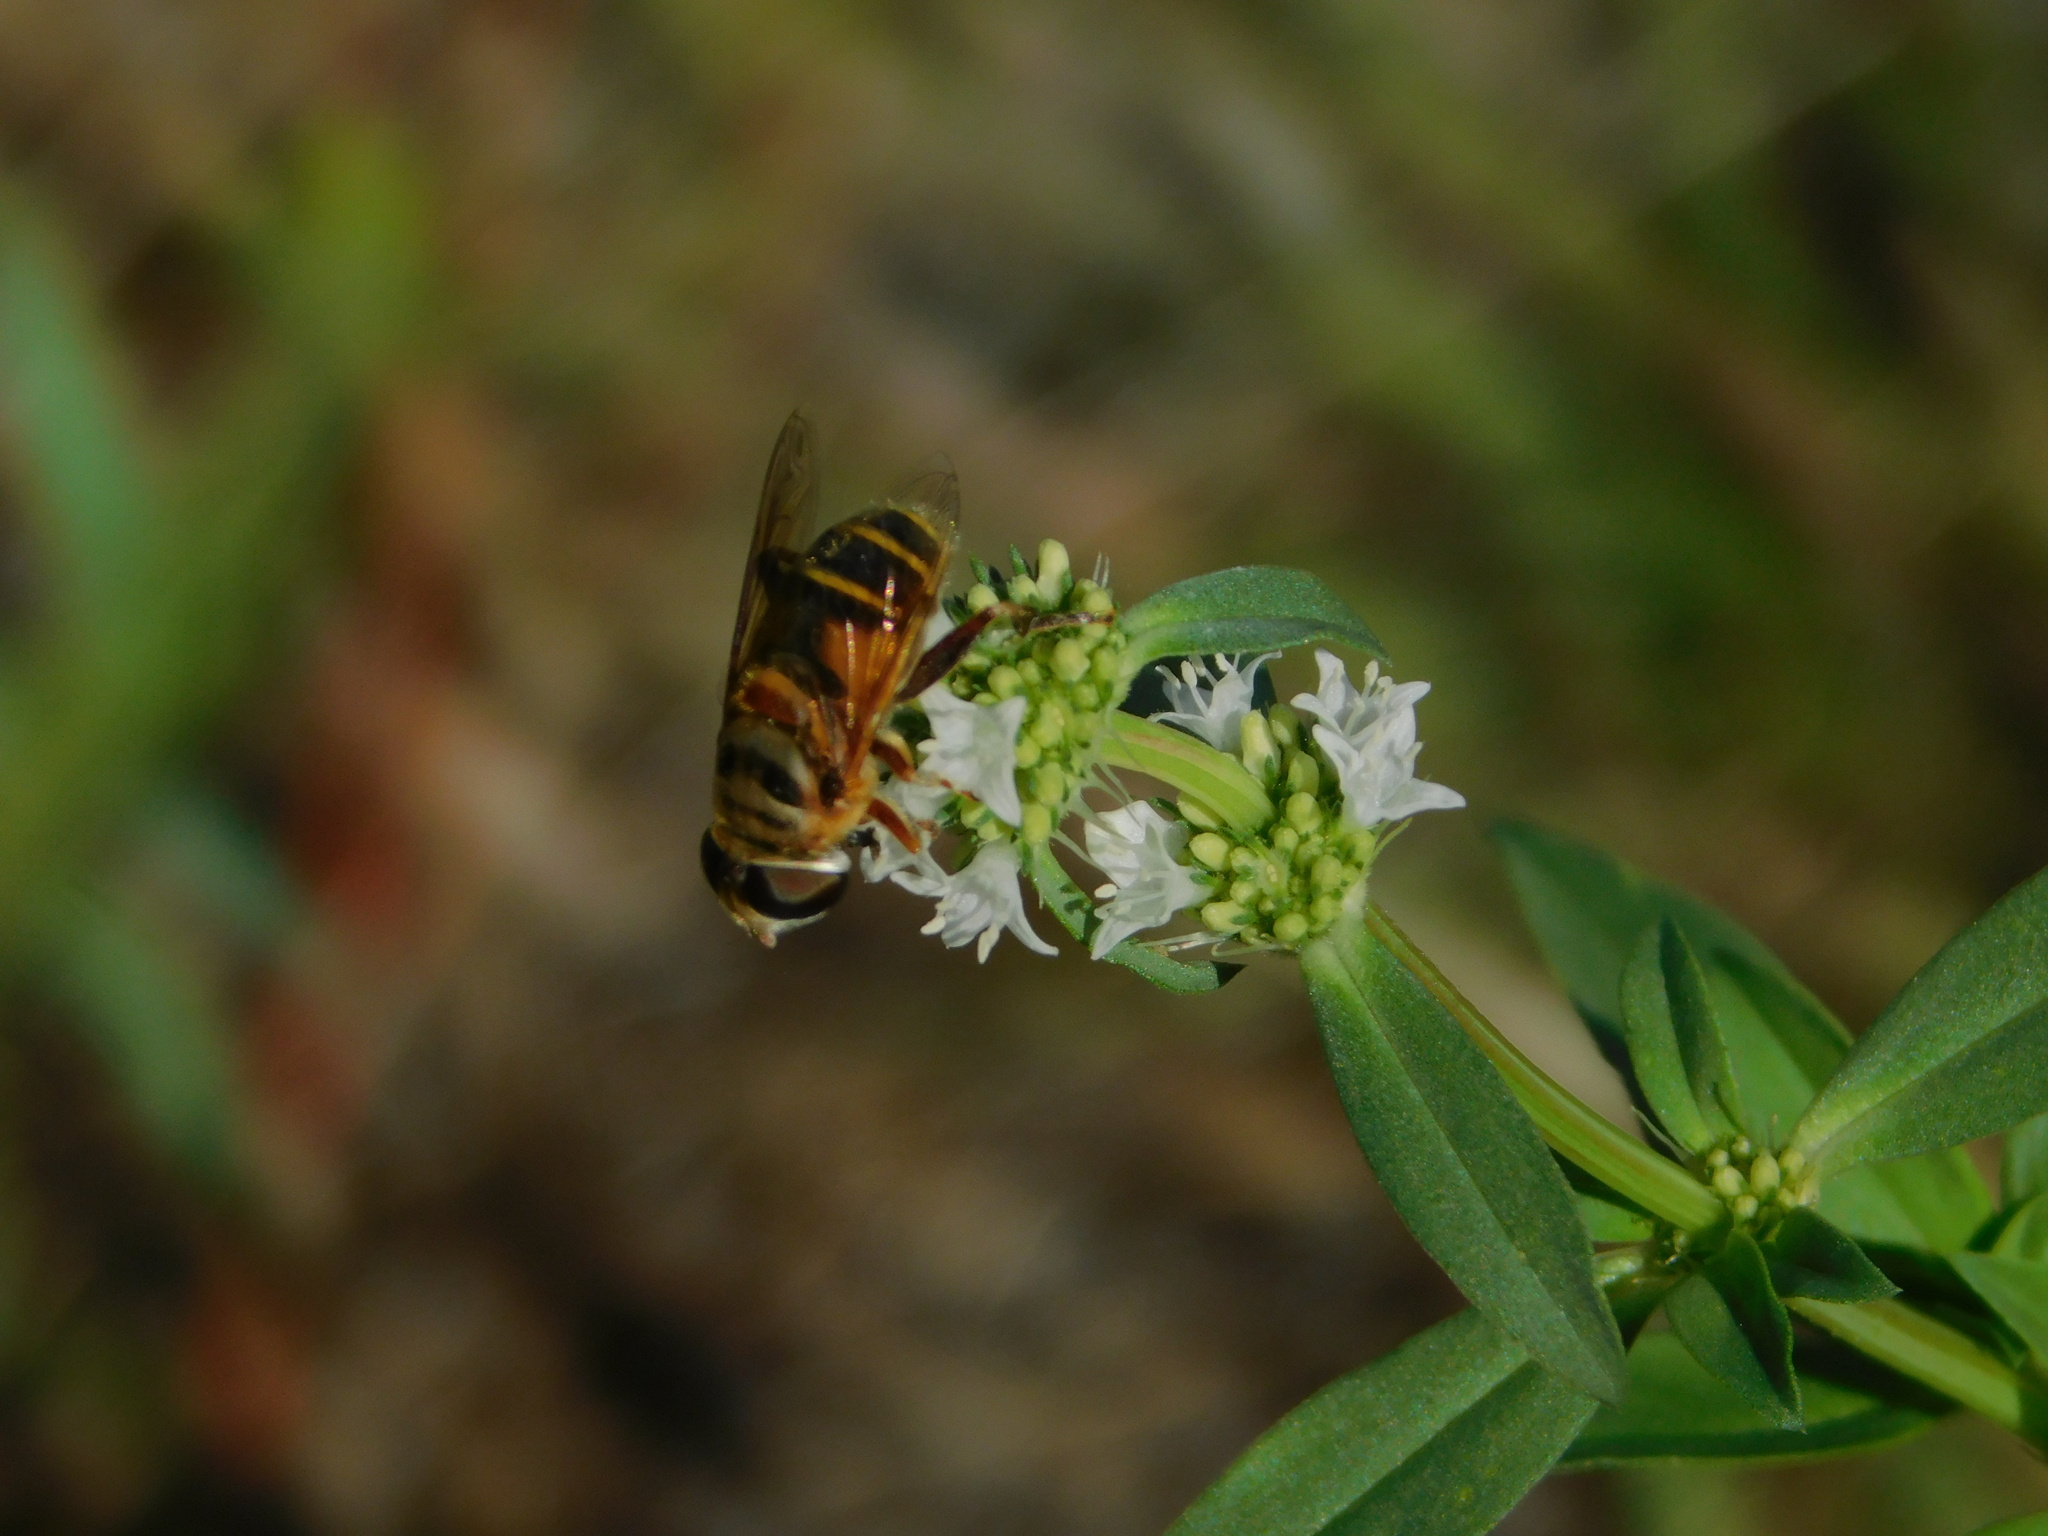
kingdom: Animalia
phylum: Arthropoda
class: Insecta
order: Diptera
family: Syrphidae
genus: Palpada
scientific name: Palpada vinetorum
